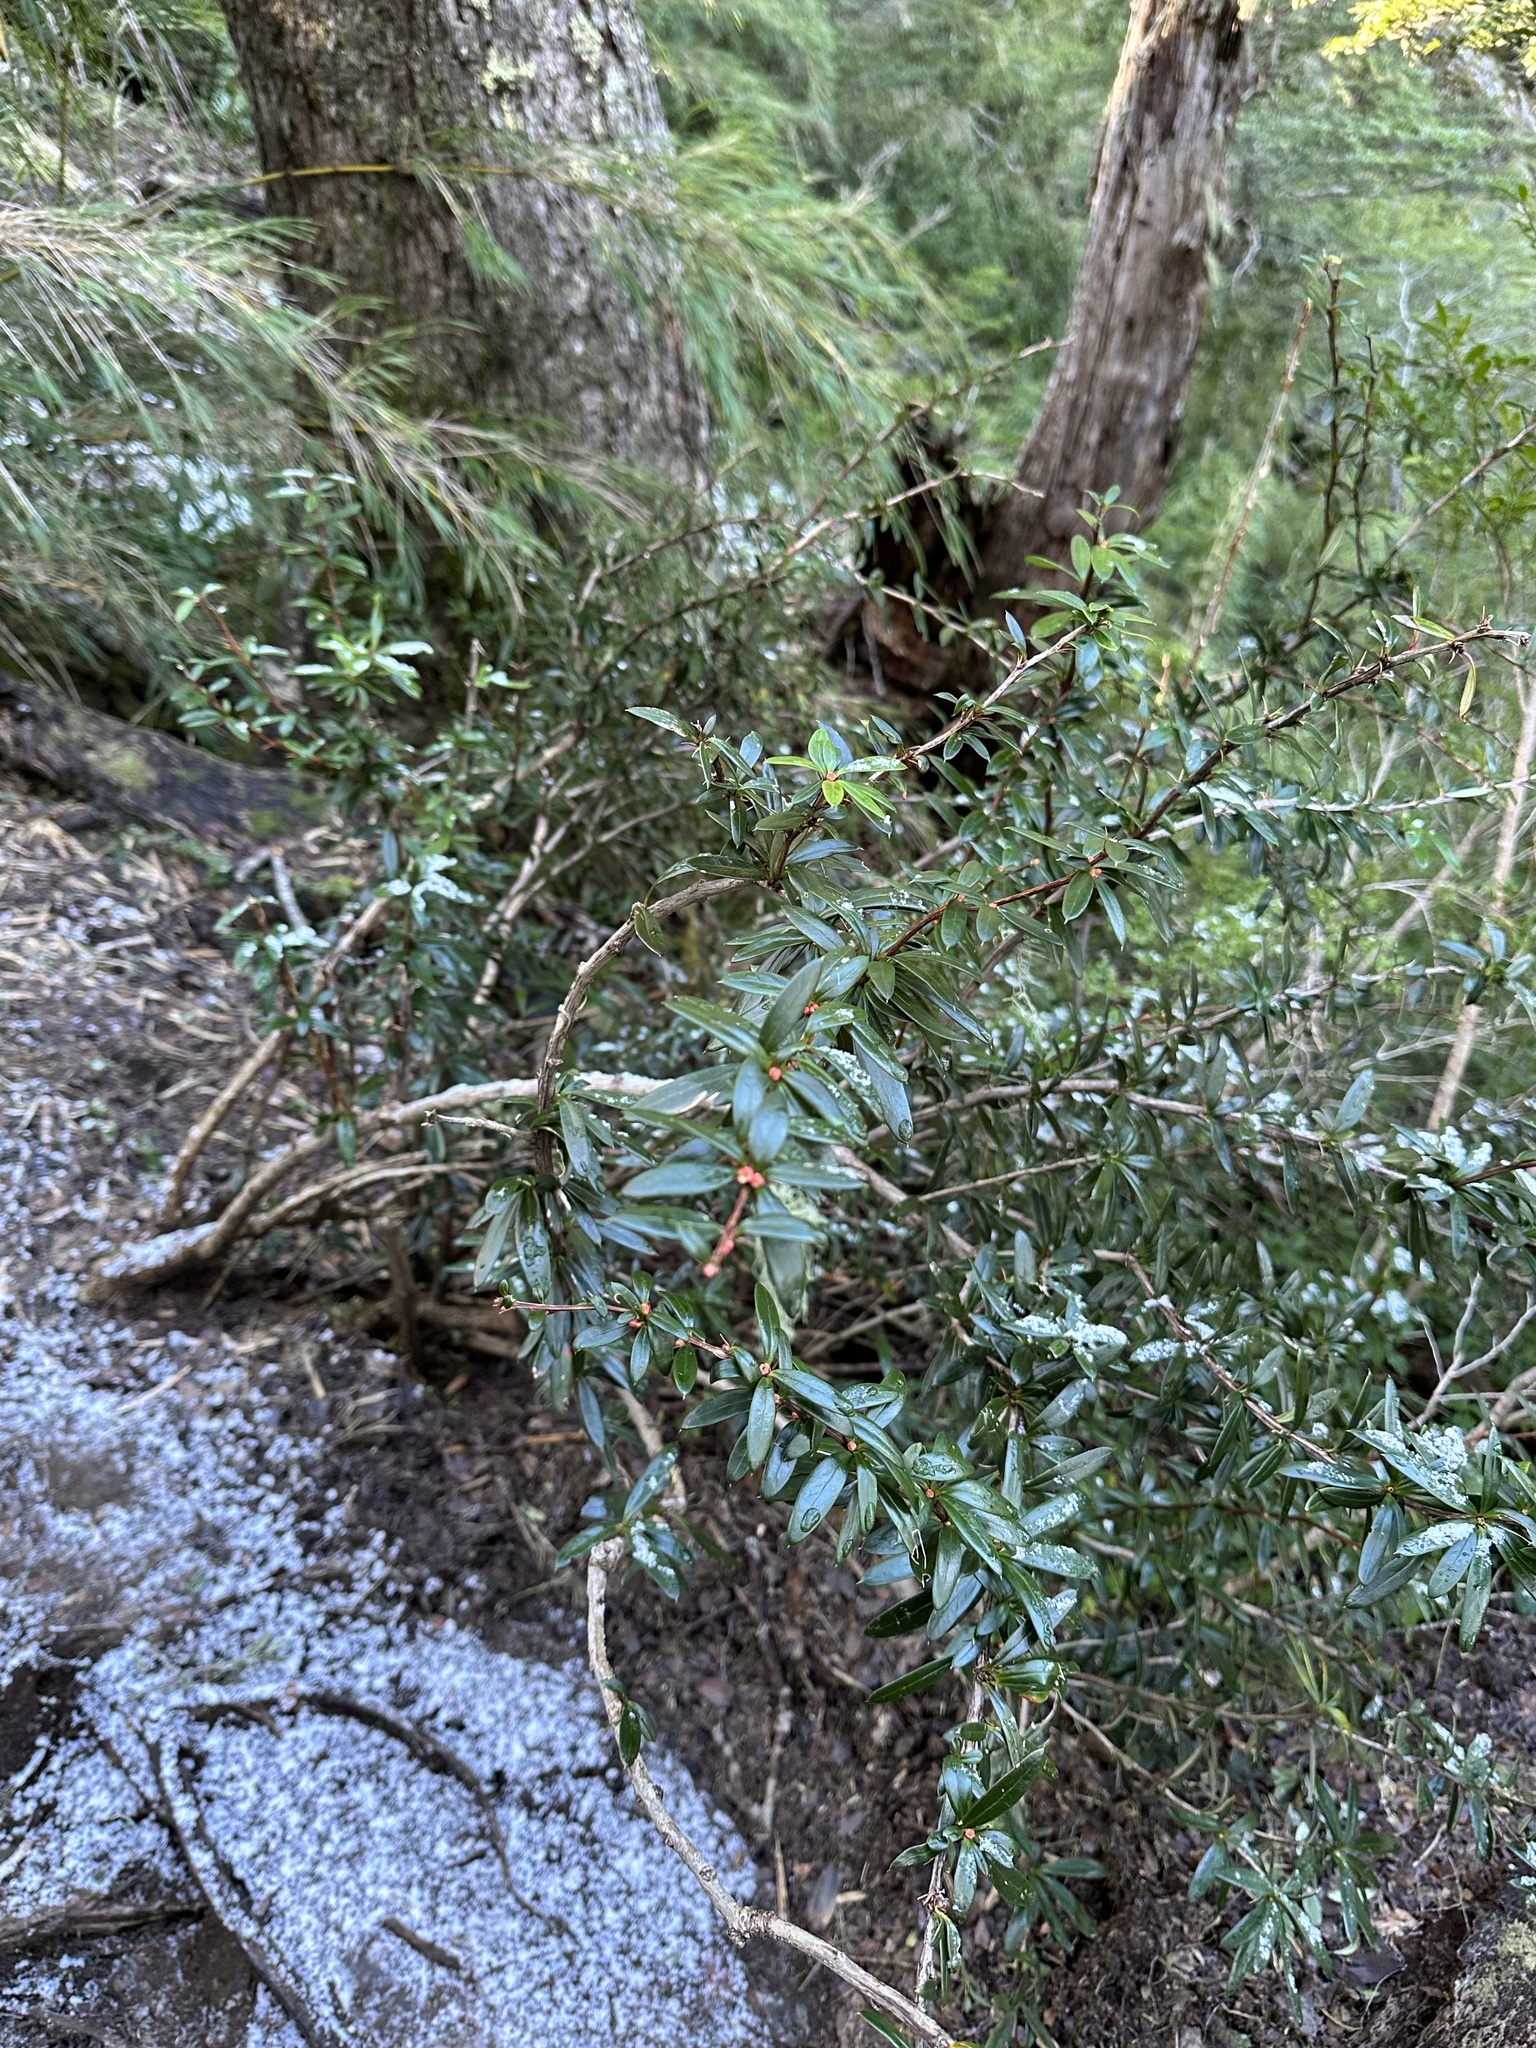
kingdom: Plantae
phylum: Tracheophyta
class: Magnoliopsida
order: Ranunculales
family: Berberidaceae
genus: Berberis
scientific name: Berberis trigona
